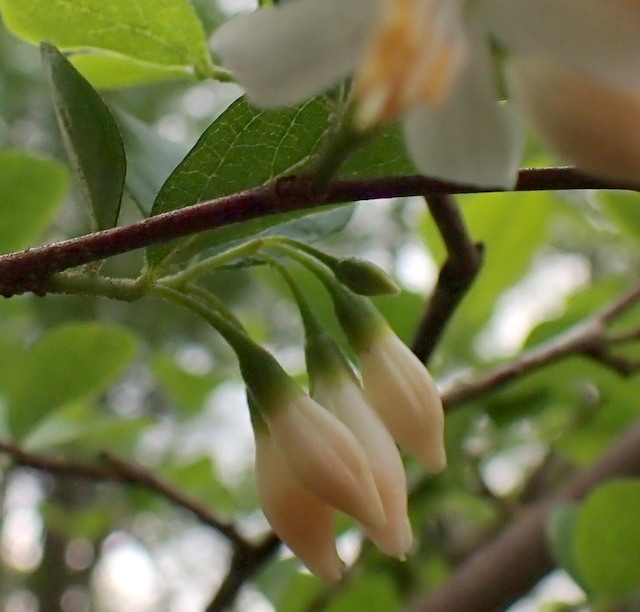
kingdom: Plantae
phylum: Tracheophyta
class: Magnoliopsida
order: Ericales
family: Styracaceae
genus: Styrax
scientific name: Styrax americanus
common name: American snowbell
